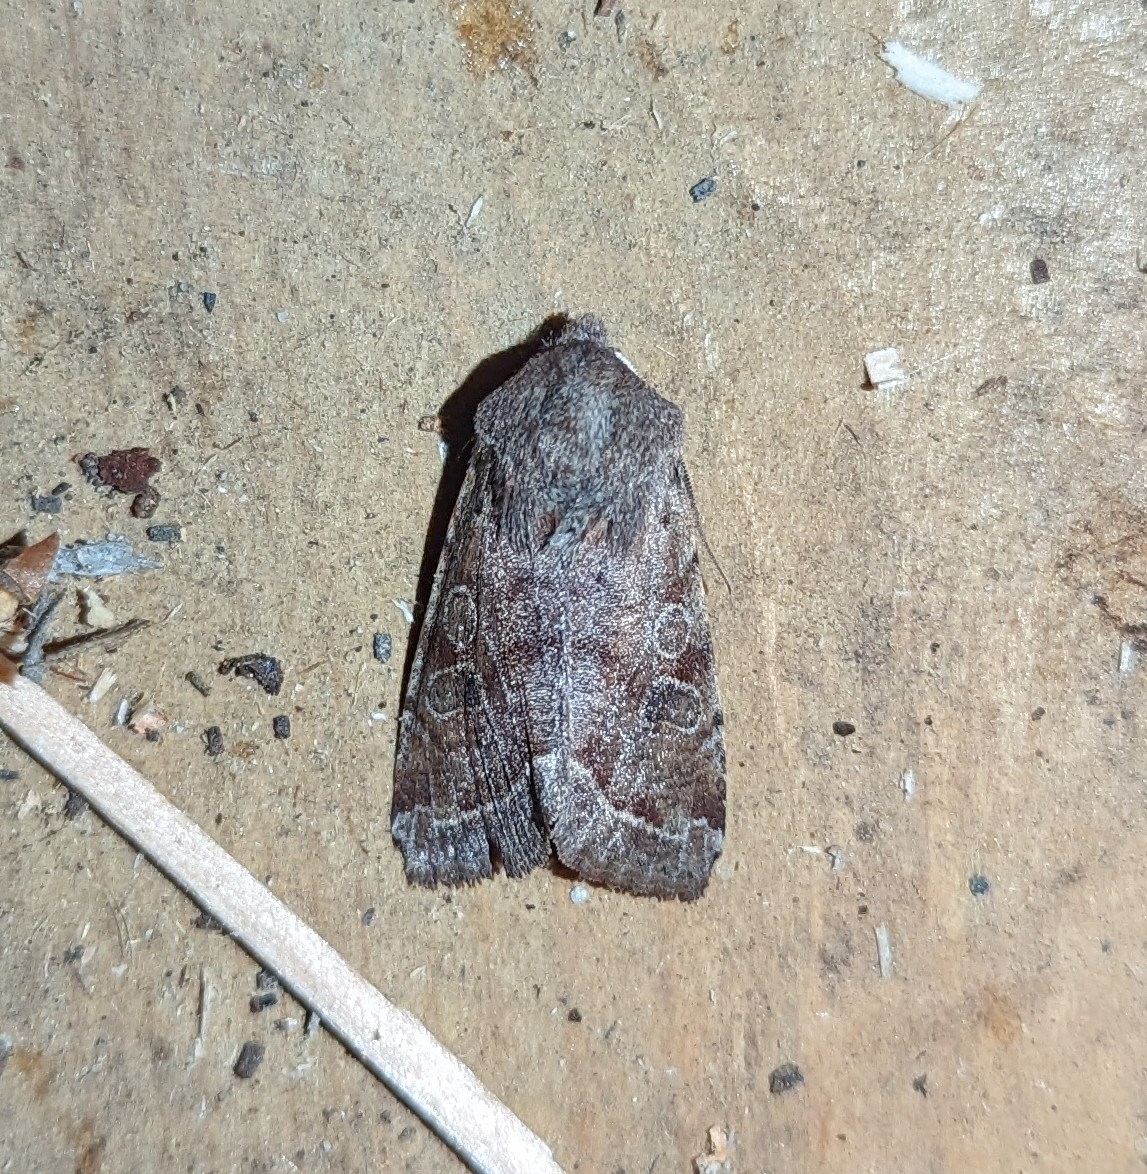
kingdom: Animalia
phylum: Arthropoda
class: Insecta
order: Lepidoptera
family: Noctuidae
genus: Orthosia
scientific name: Orthosia hibisci
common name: Green fruitworm
